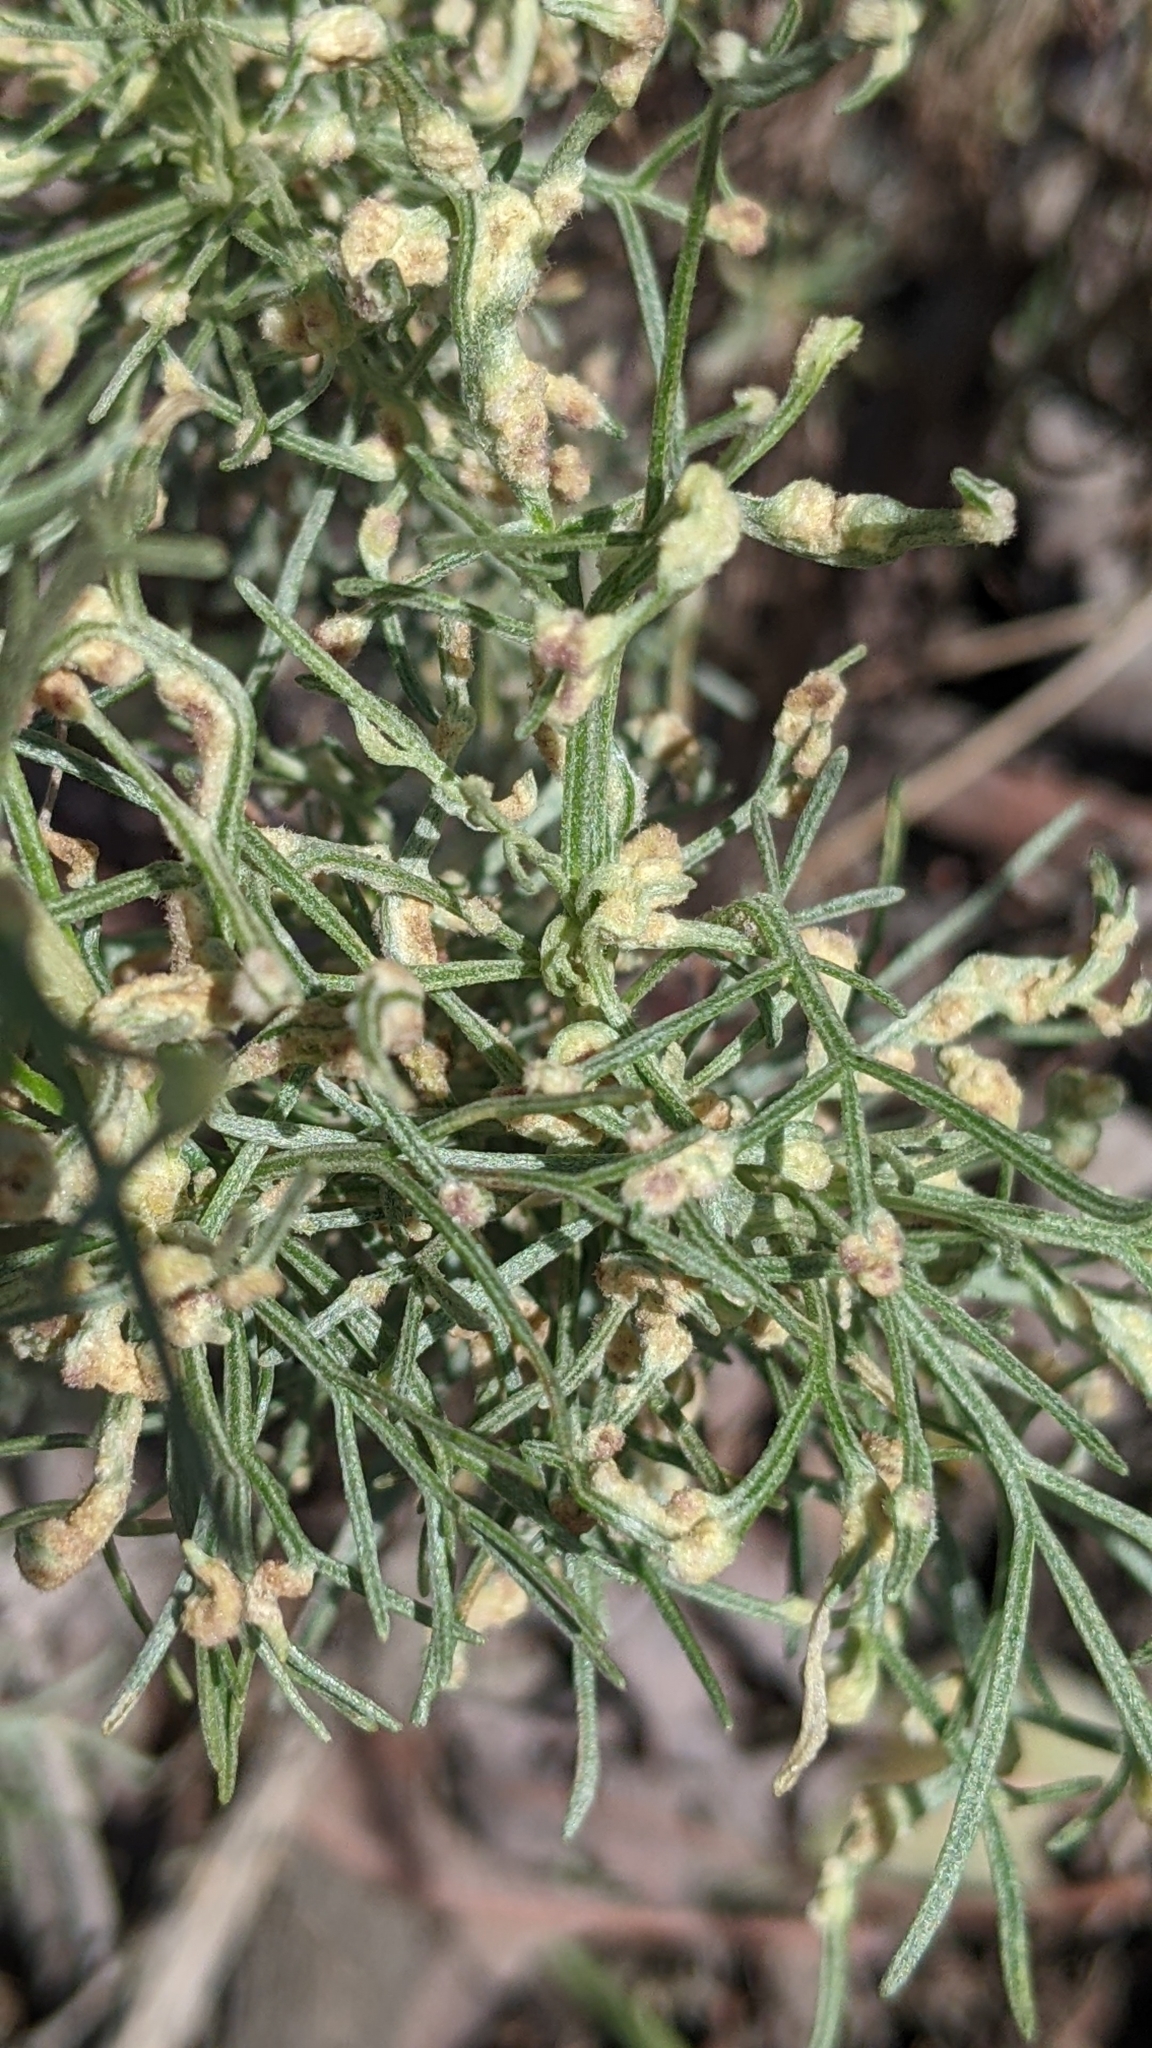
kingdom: Plantae
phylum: Tracheophyta
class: Magnoliopsida
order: Asterales
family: Asteraceae
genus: Artemisia
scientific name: Artemisia californica
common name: California sagebrush
